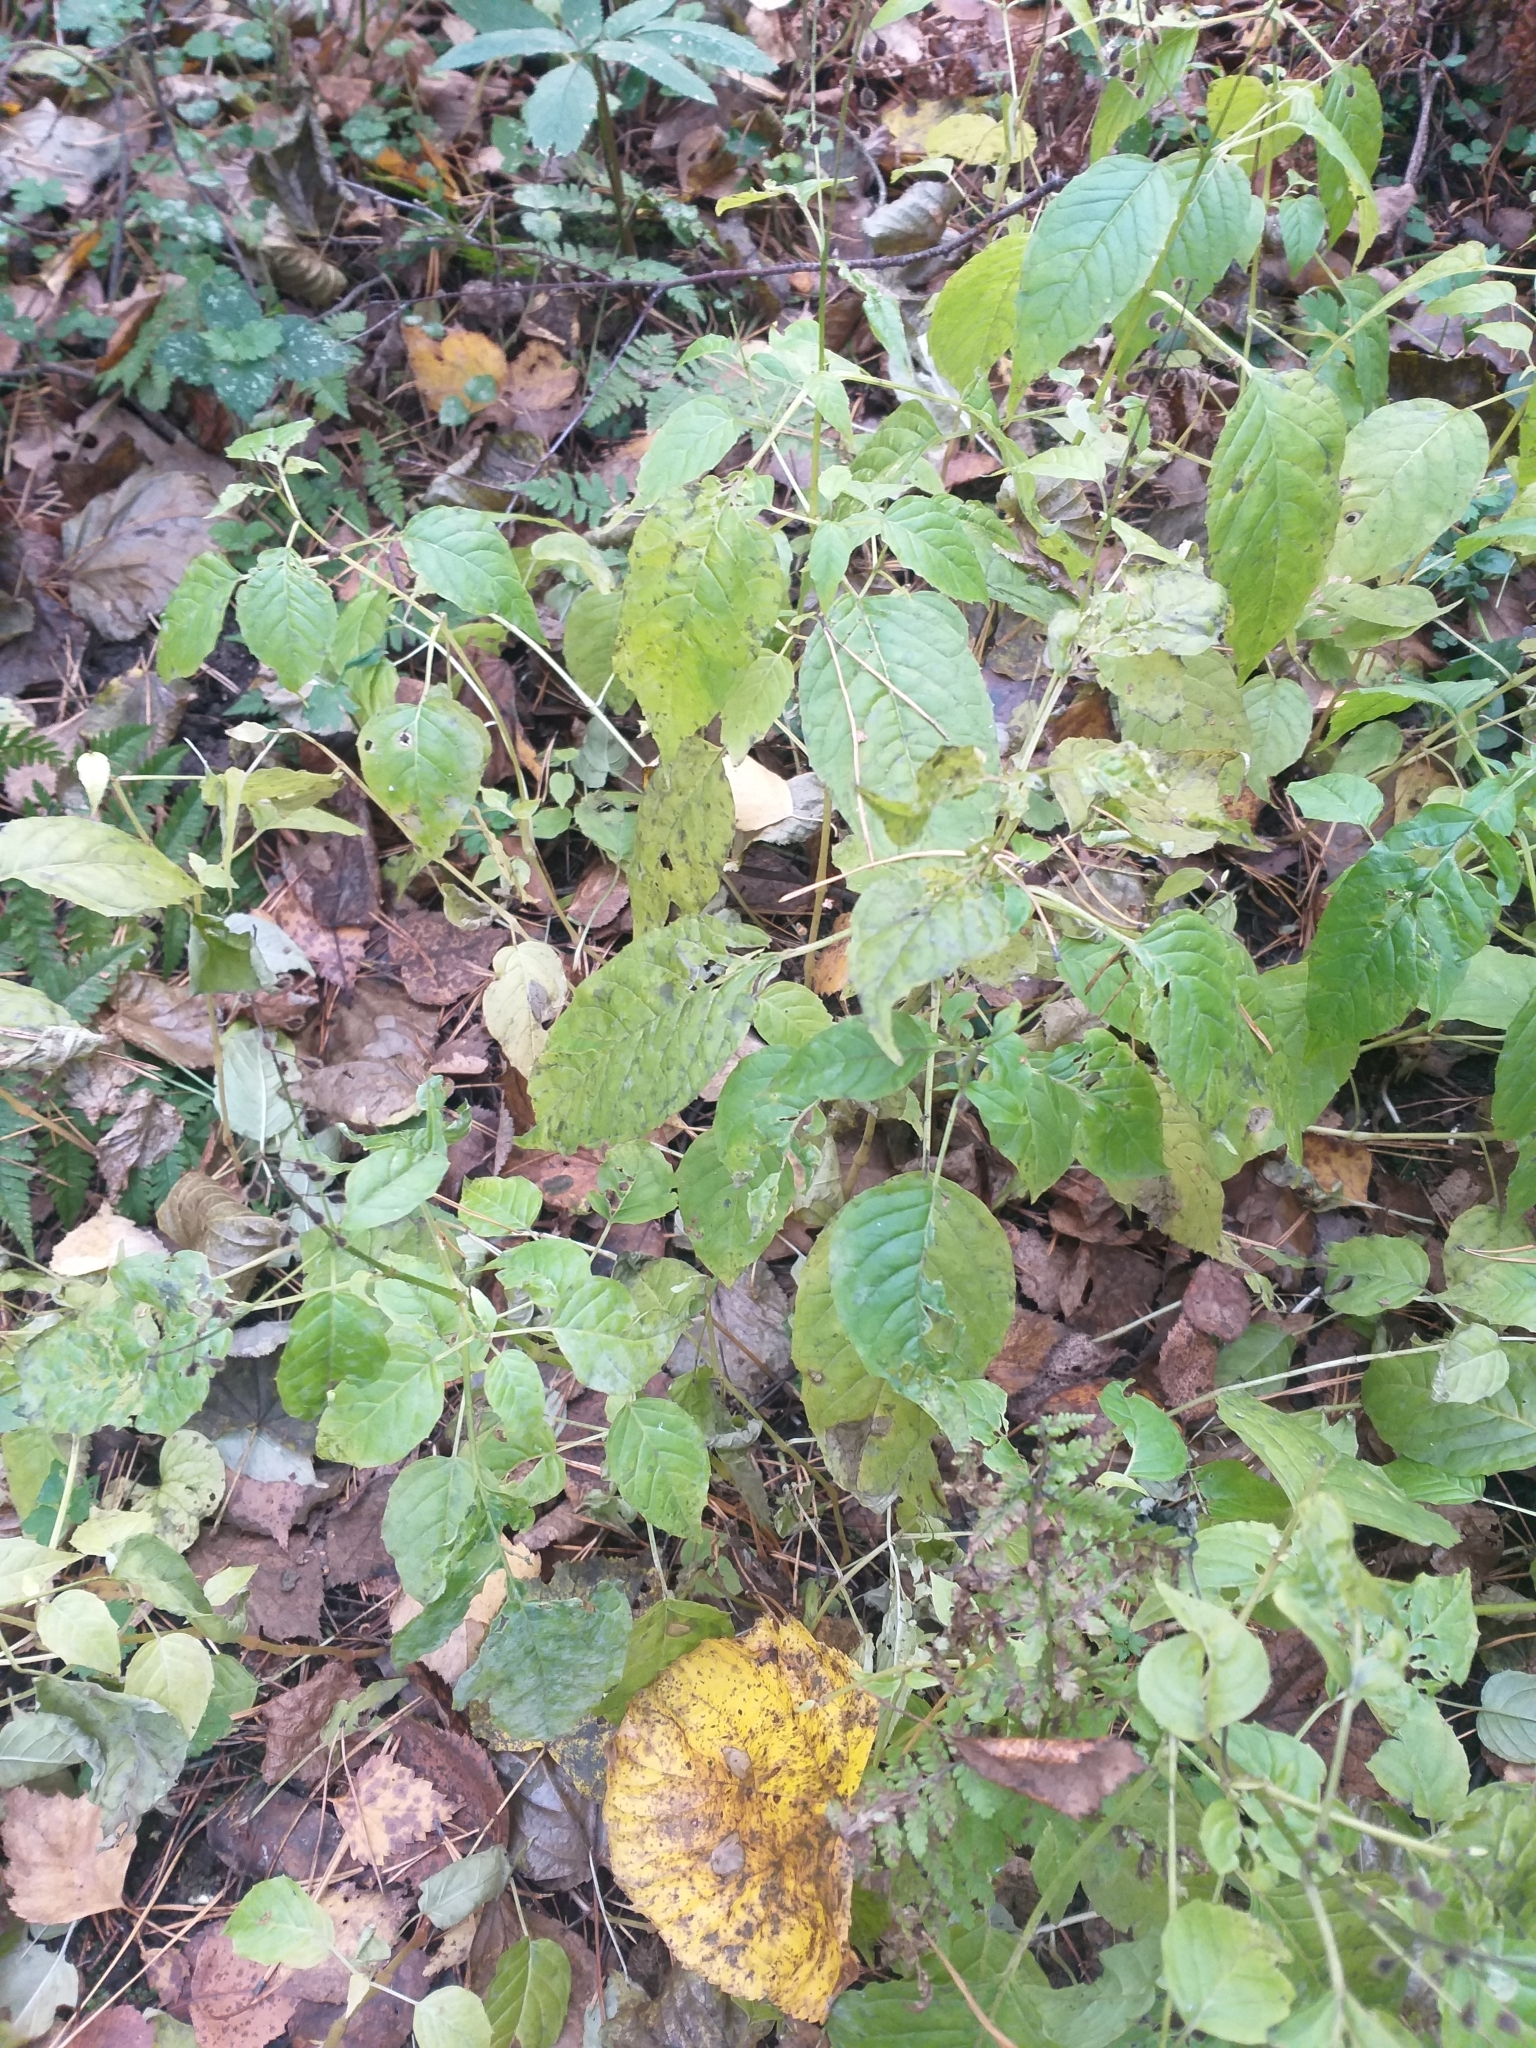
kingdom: Plantae
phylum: Tracheophyta
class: Magnoliopsida
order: Myrtales
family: Onagraceae
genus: Circaea
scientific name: Circaea lutetiana
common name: Enchanter's-nightshade
